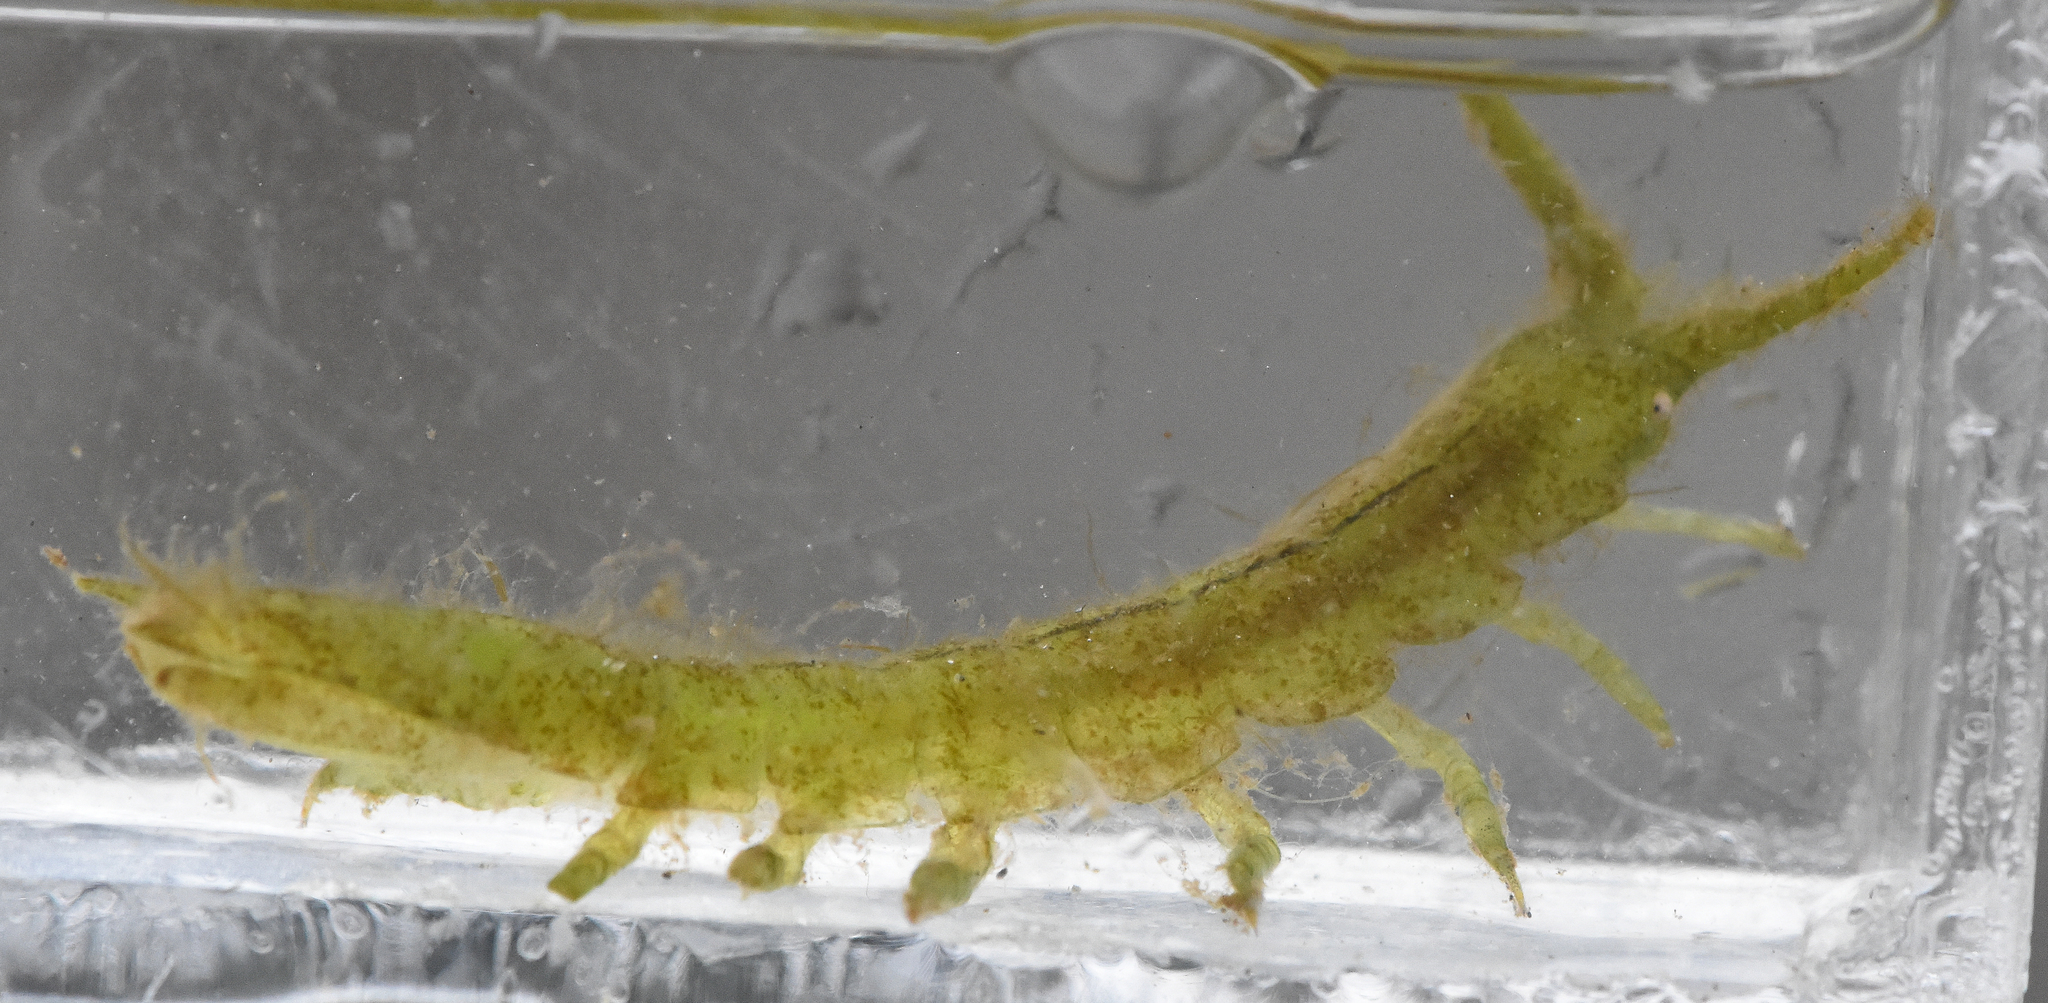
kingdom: Animalia
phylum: Arthropoda
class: Malacostraca
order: Isopoda
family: Idoteidae
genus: Pentidotea
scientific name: Pentidotea resecata
